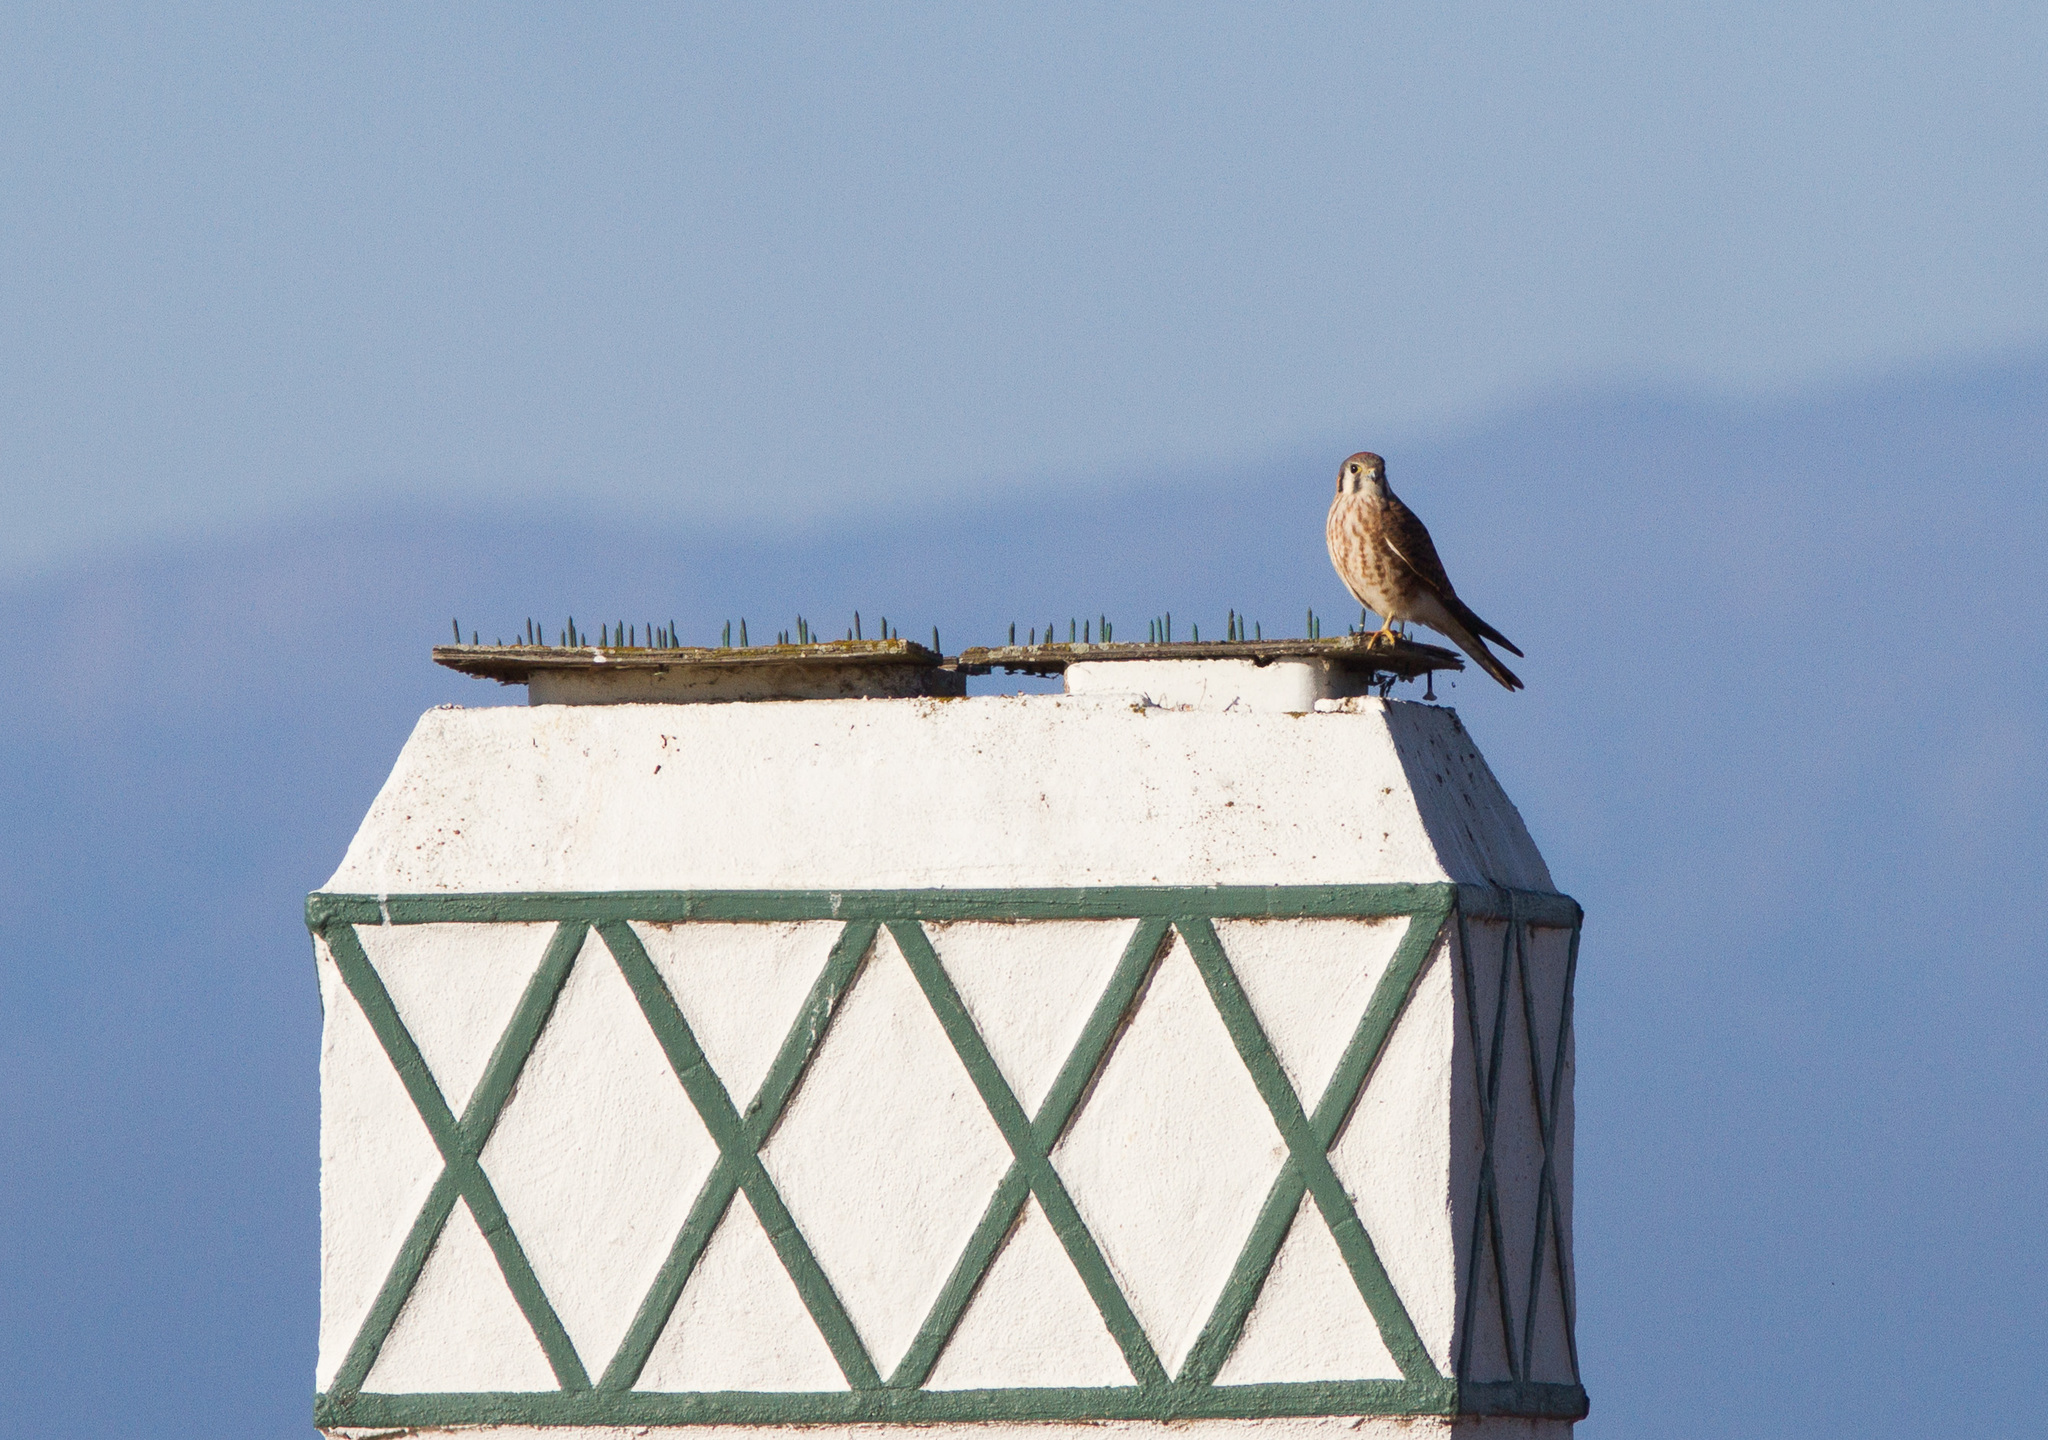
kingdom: Animalia
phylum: Chordata
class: Aves
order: Falconiformes
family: Falconidae
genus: Falco
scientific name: Falco sparverius
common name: American kestrel
